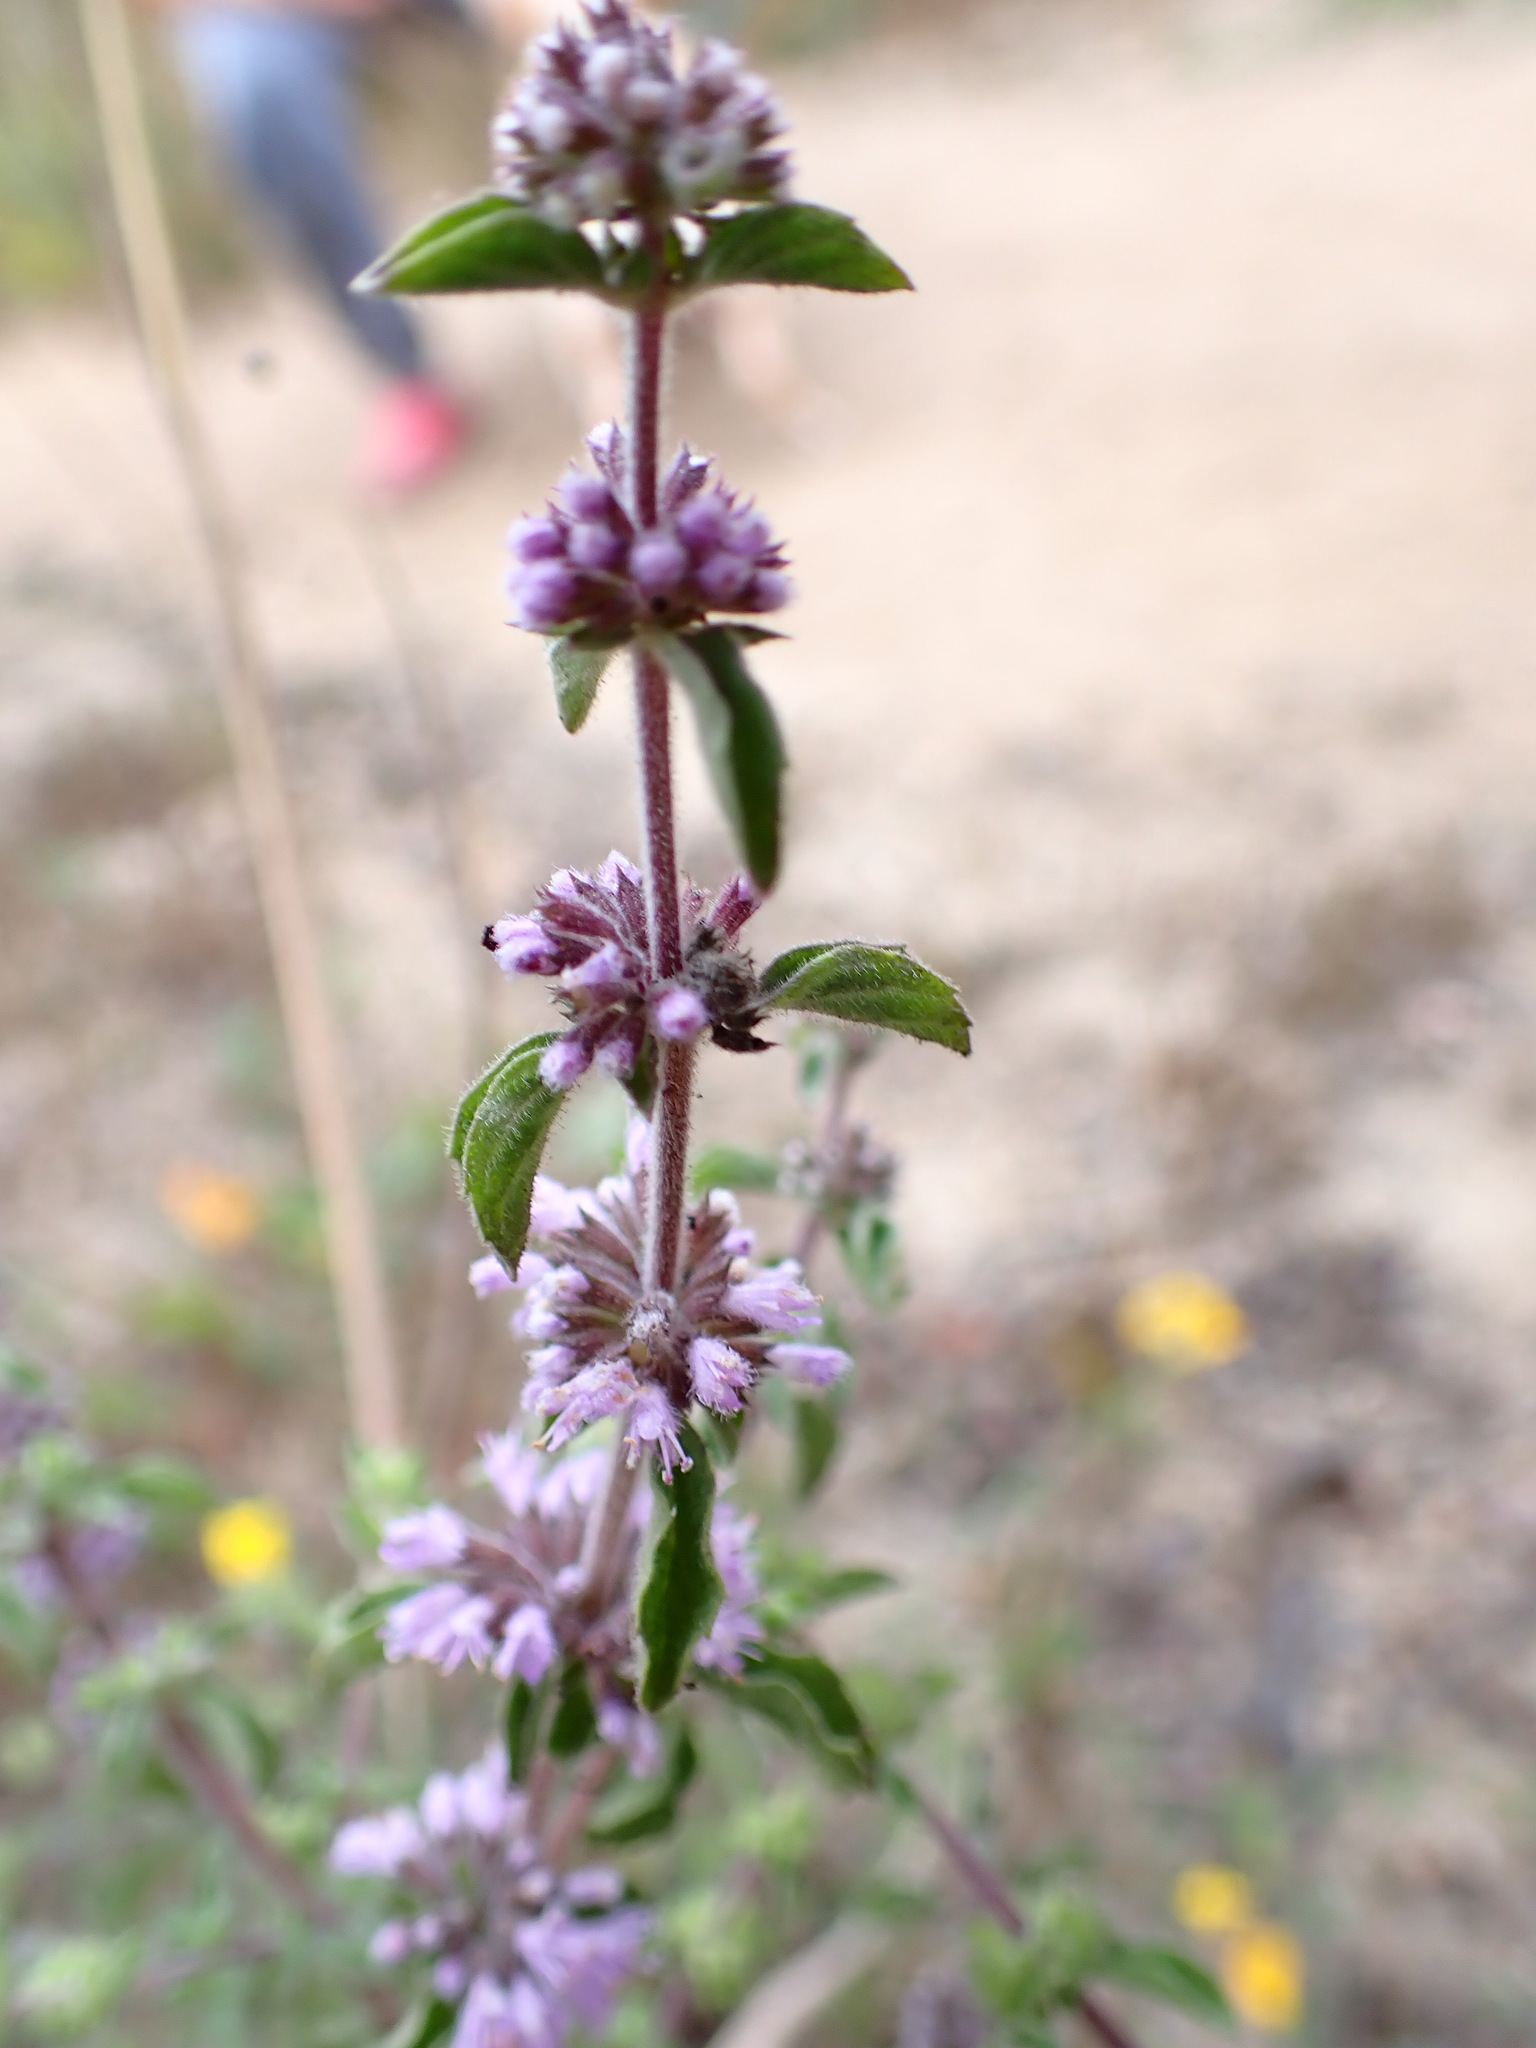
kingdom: Plantae
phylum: Tracheophyta
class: Magnoliopsida
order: Lamiales
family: Lamiaceae
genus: Mentha
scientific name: Mentha pulegium
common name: Pennyroyal
